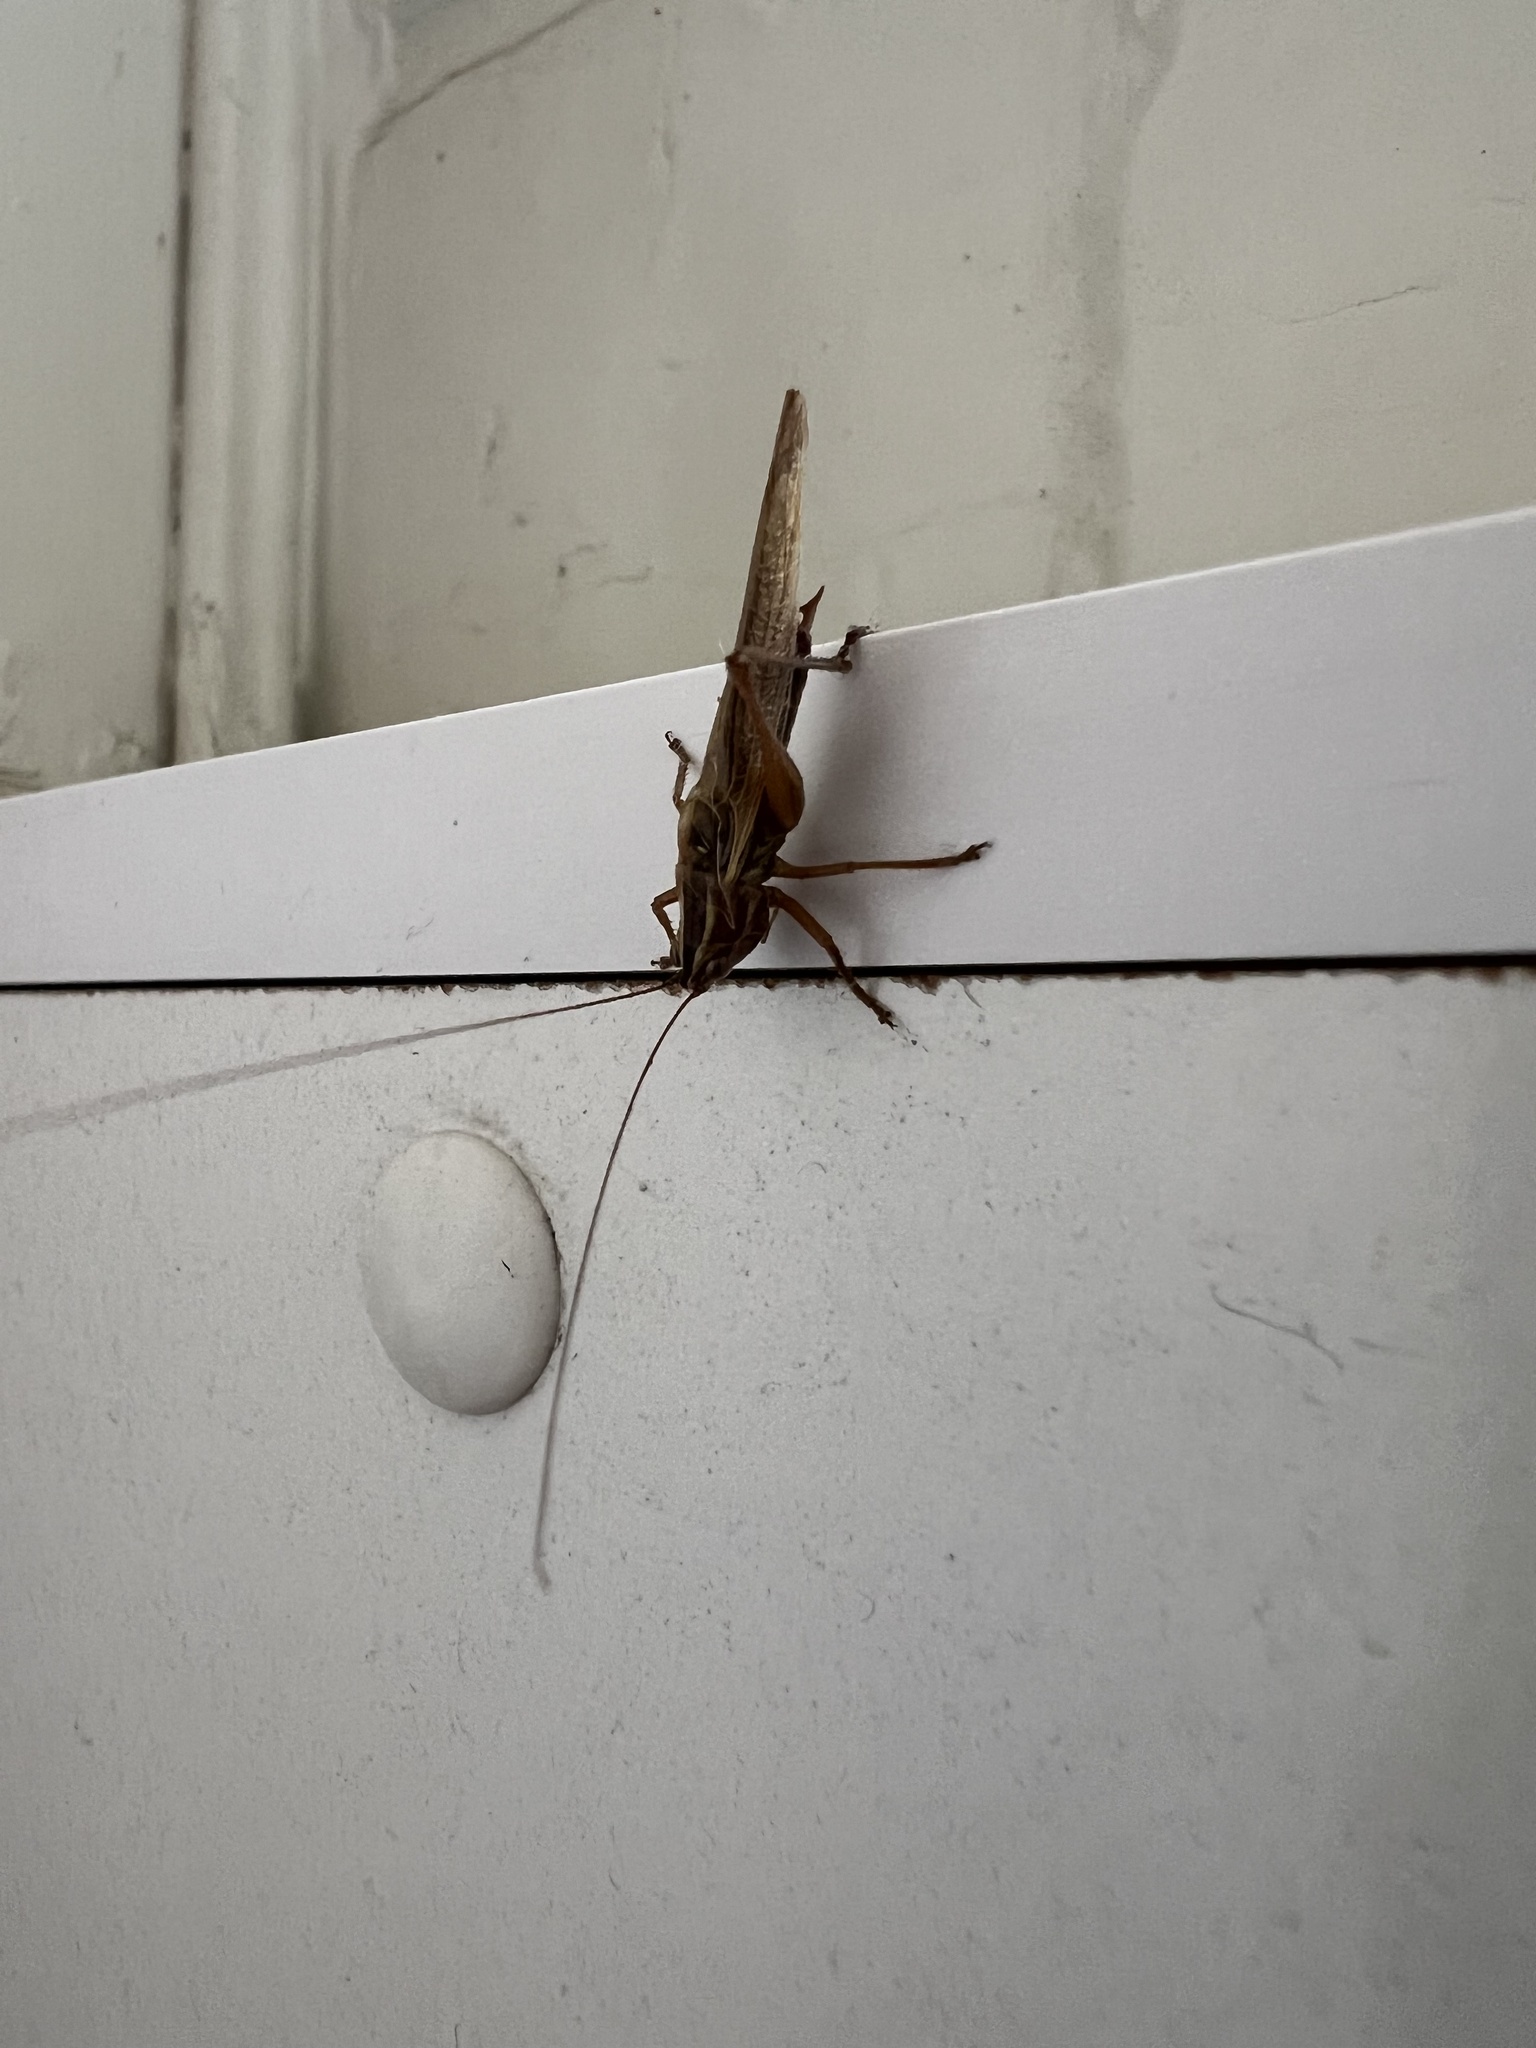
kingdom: Animalia
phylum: Arthropoda
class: Insecta
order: Orthoptera
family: Tettigoniidae
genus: Conocephalus
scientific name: Conocephalus bilineatus
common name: Small meadow katydid
